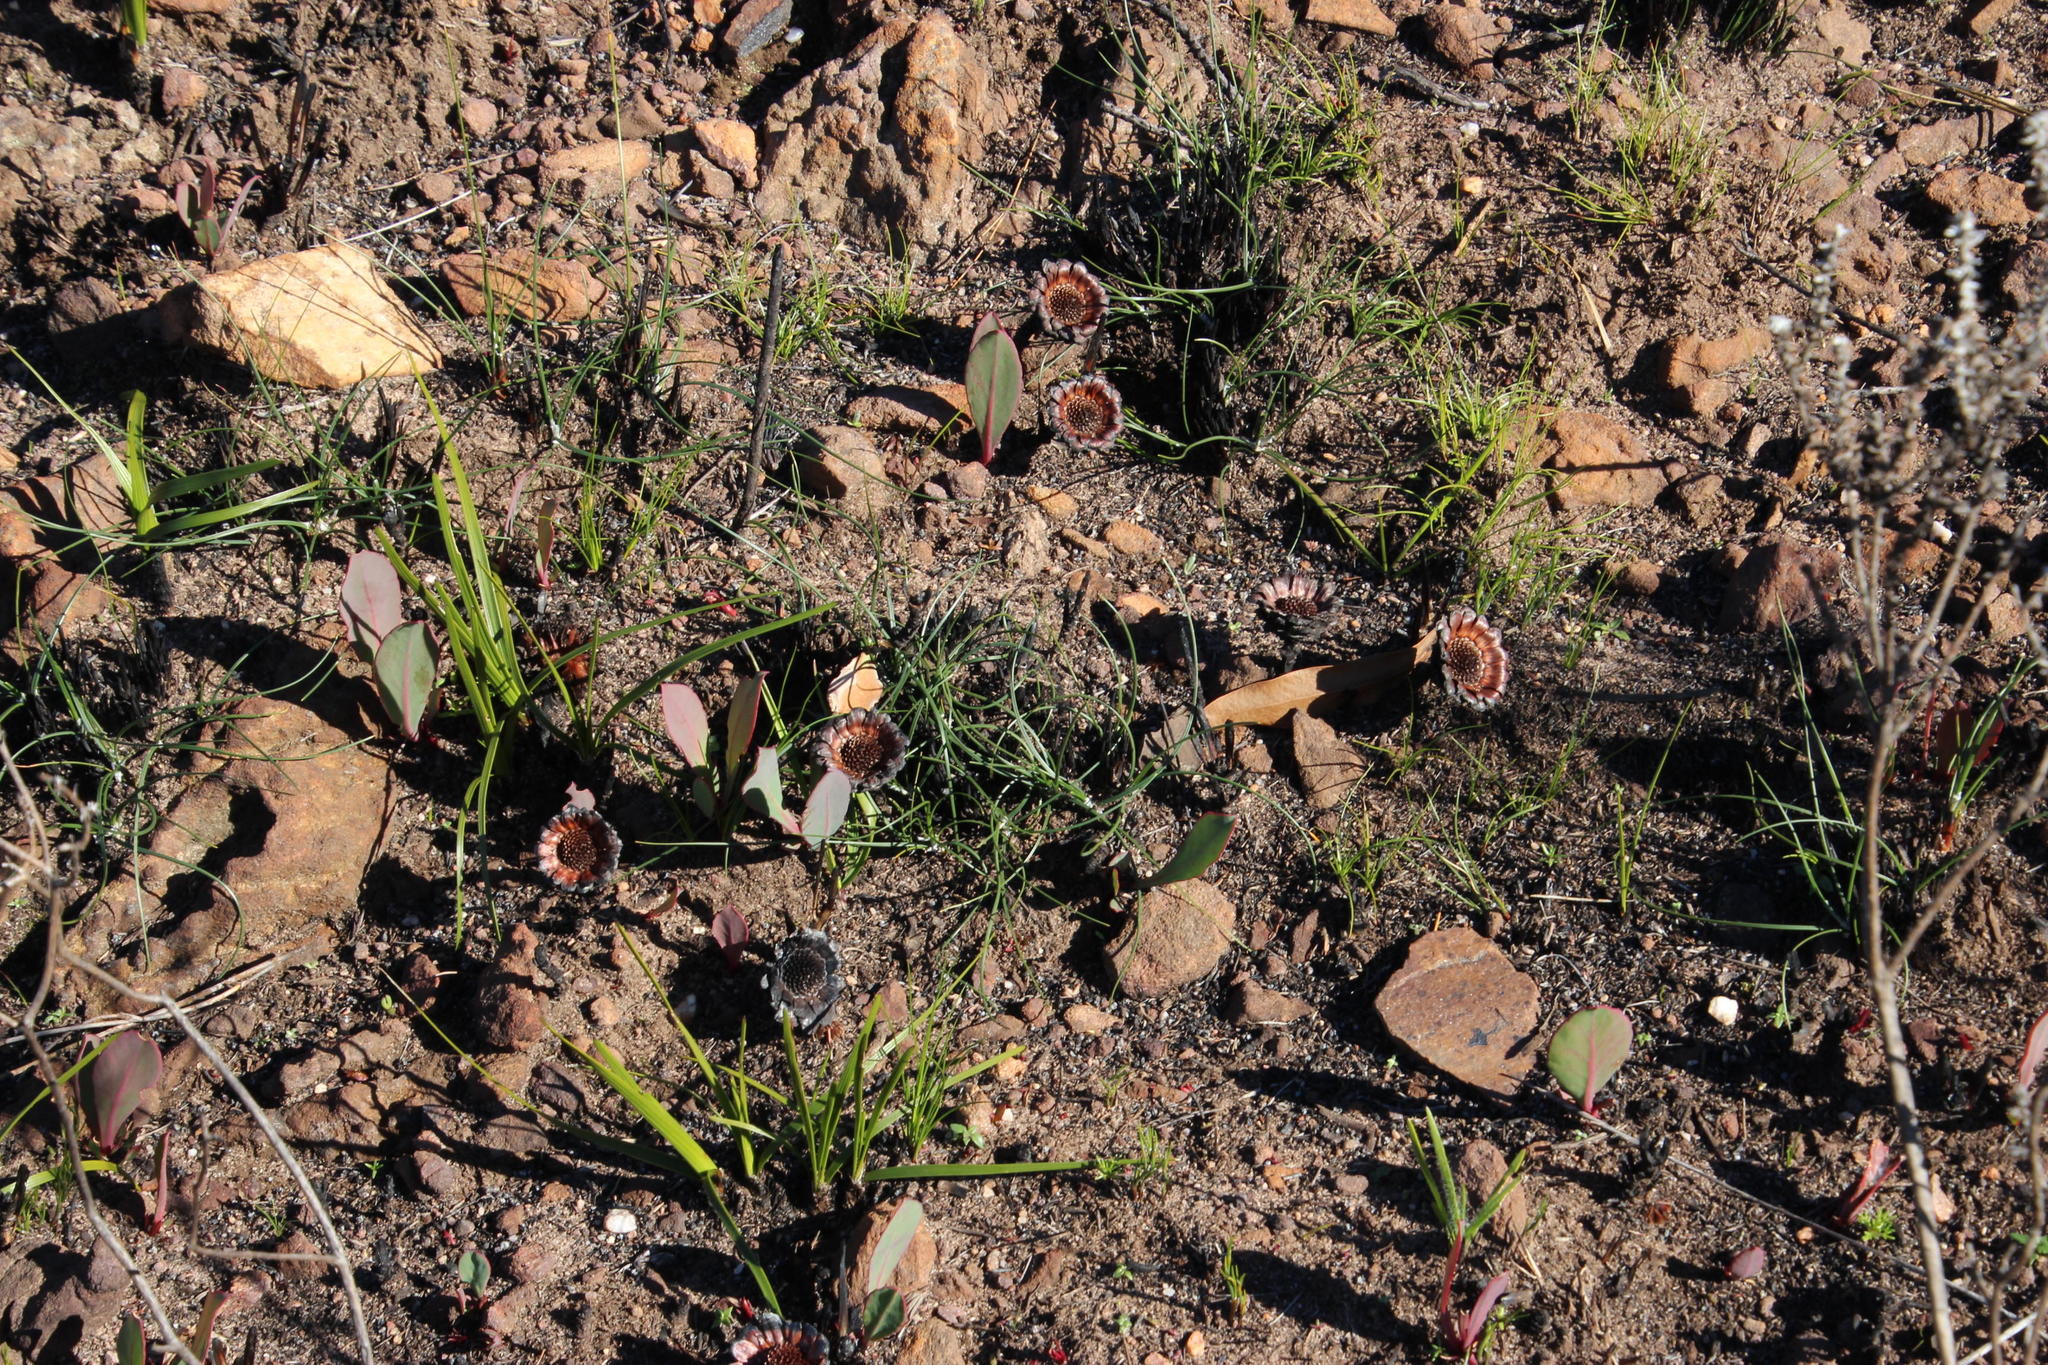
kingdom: Plantae
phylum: Tracheophyta
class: Magnoliopsida
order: Proteales
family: Proteaceae
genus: Protea
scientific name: Protea acaulos
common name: Common ground sugarbush
